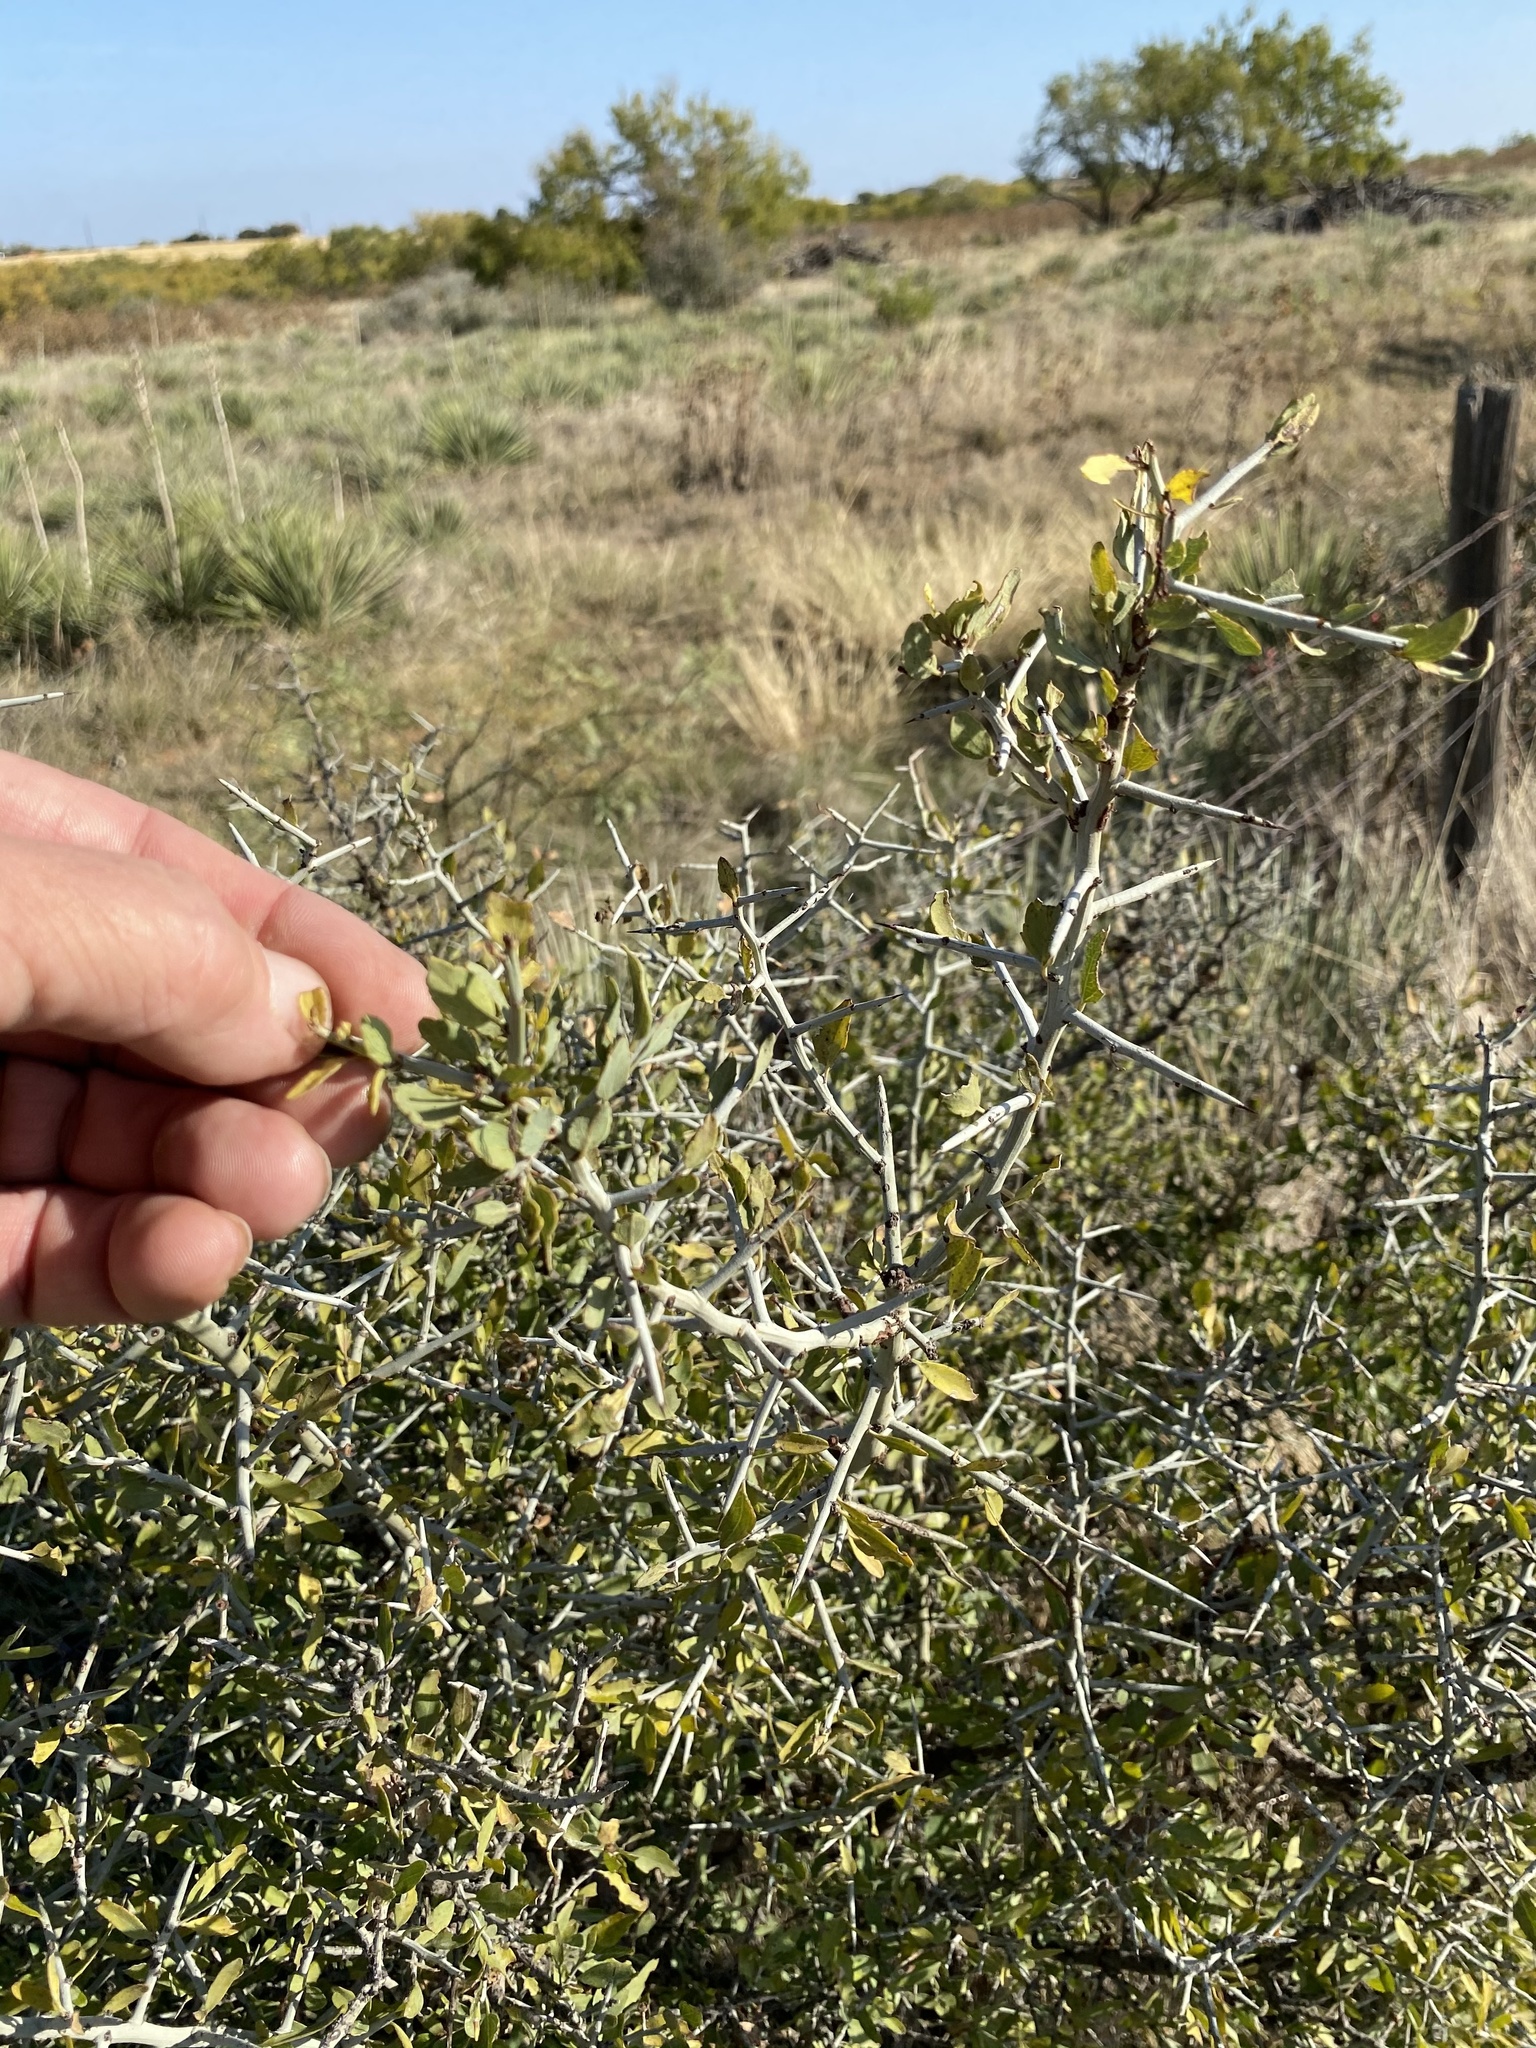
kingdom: Plantae
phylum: Tracheophyta
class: Magnoliopsida
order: Rosales
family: Rhamnaceae
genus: Sarcomphalus
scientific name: Sarcomphalus obtusifolius
